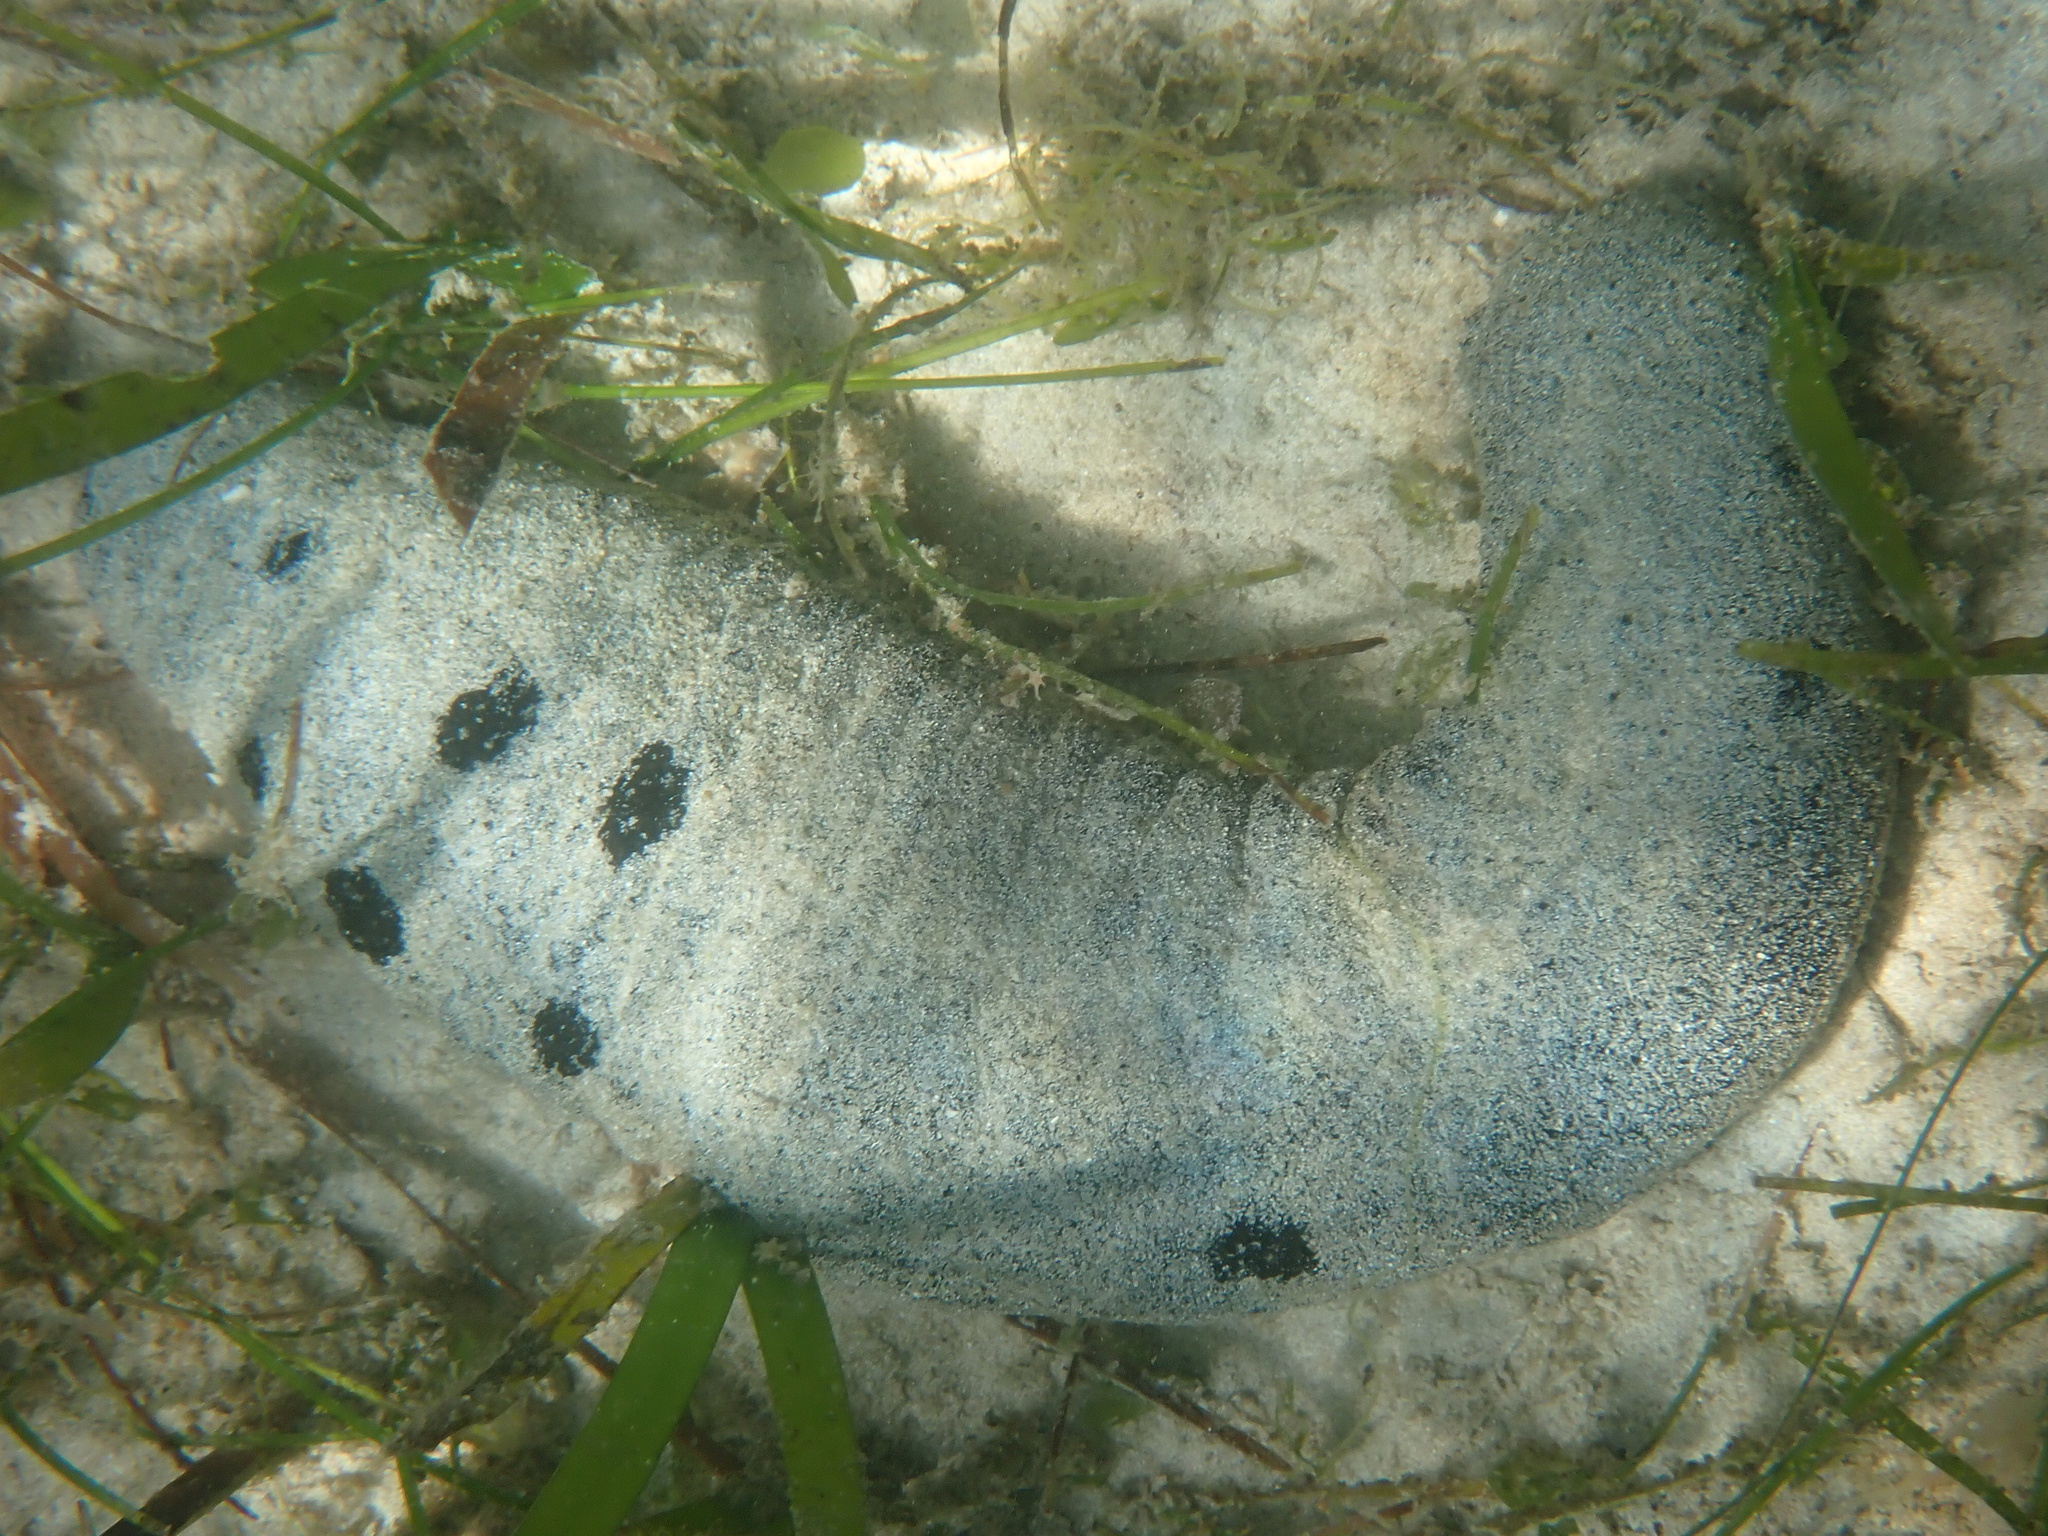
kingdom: Animalia
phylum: Echinodermata
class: Holothuroidea
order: Holothuriida
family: Holothuriidae
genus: Holothuria
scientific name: Holothuria atra
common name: Lollyfish
